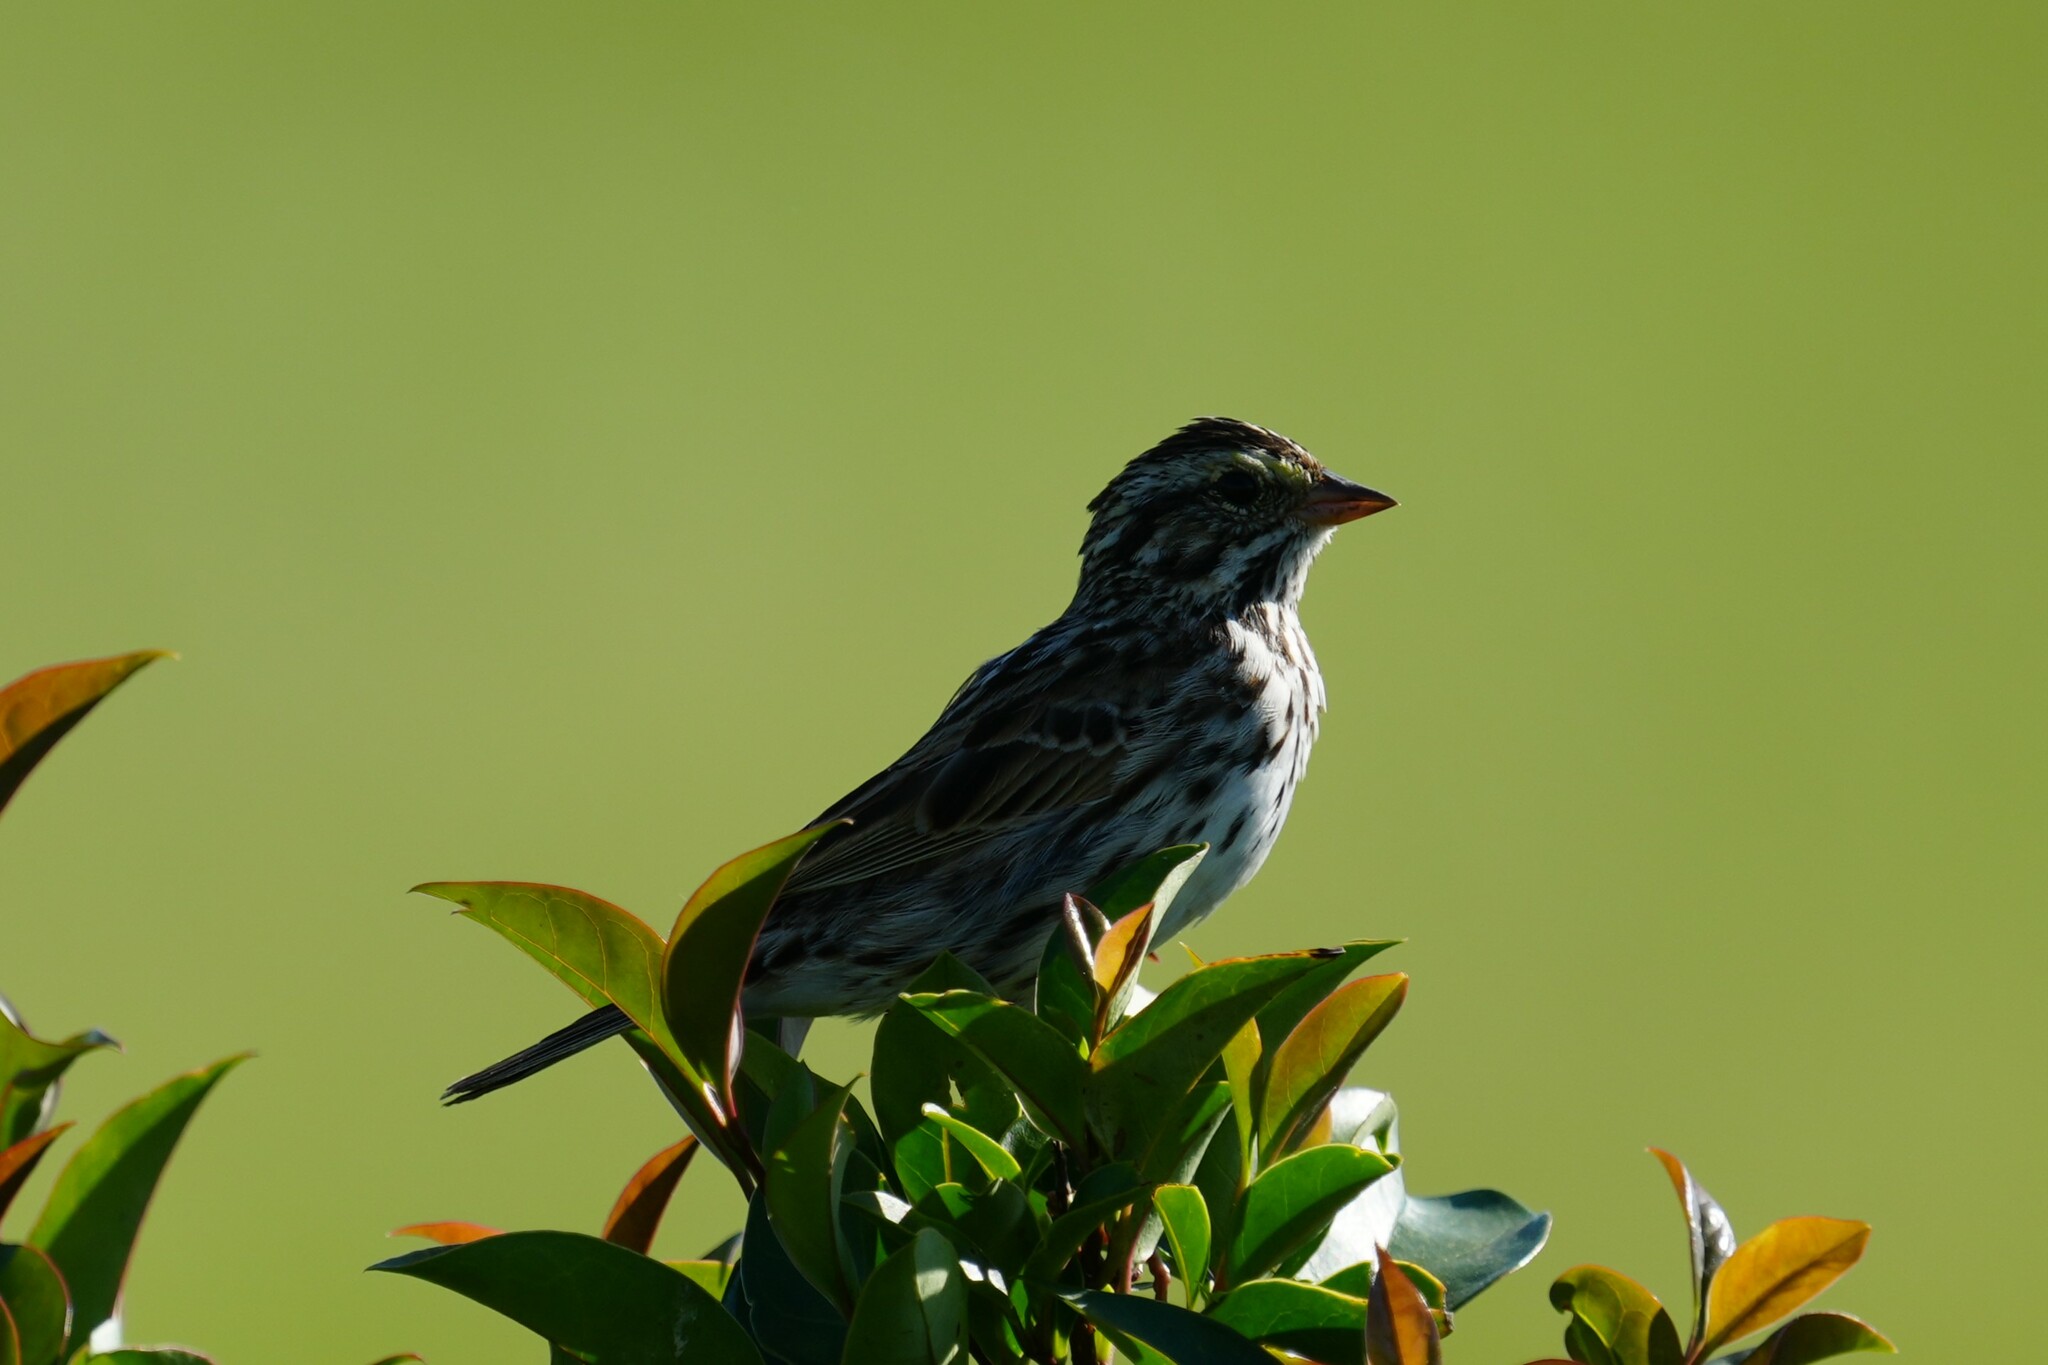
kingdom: Animalia
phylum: Chordata
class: Aves
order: Passeriformes
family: Passerellidae
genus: Passerculus
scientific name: Passerculus sandwichensis
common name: Savannah sparrow
